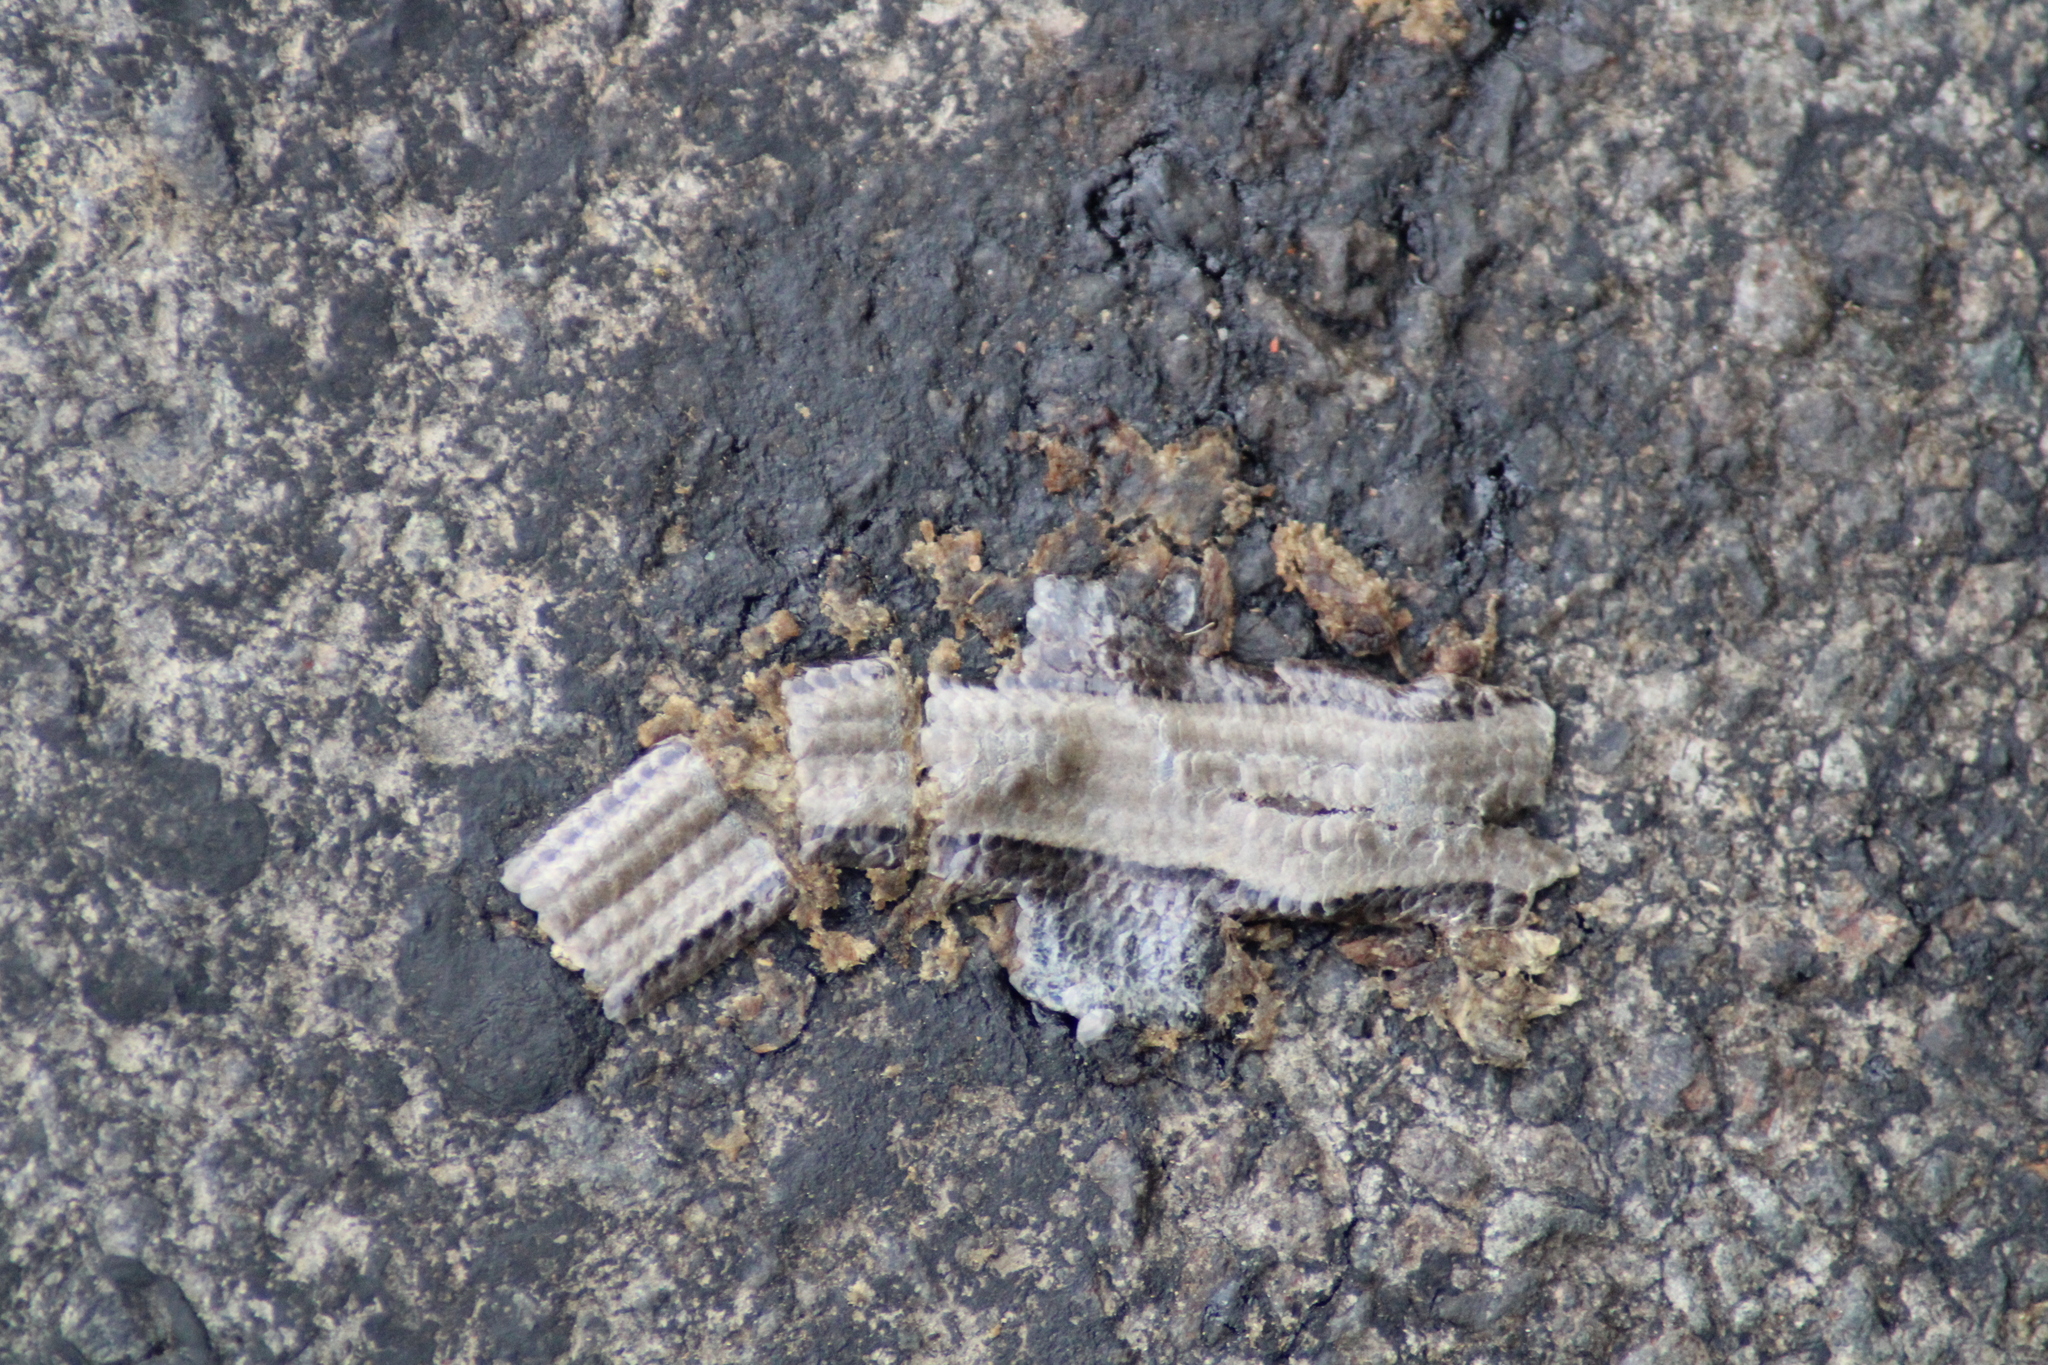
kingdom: Animalia
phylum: Chordata
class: Squamata
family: Anguidae
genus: Anguis
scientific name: Anguis fragilis
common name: Slow worm
